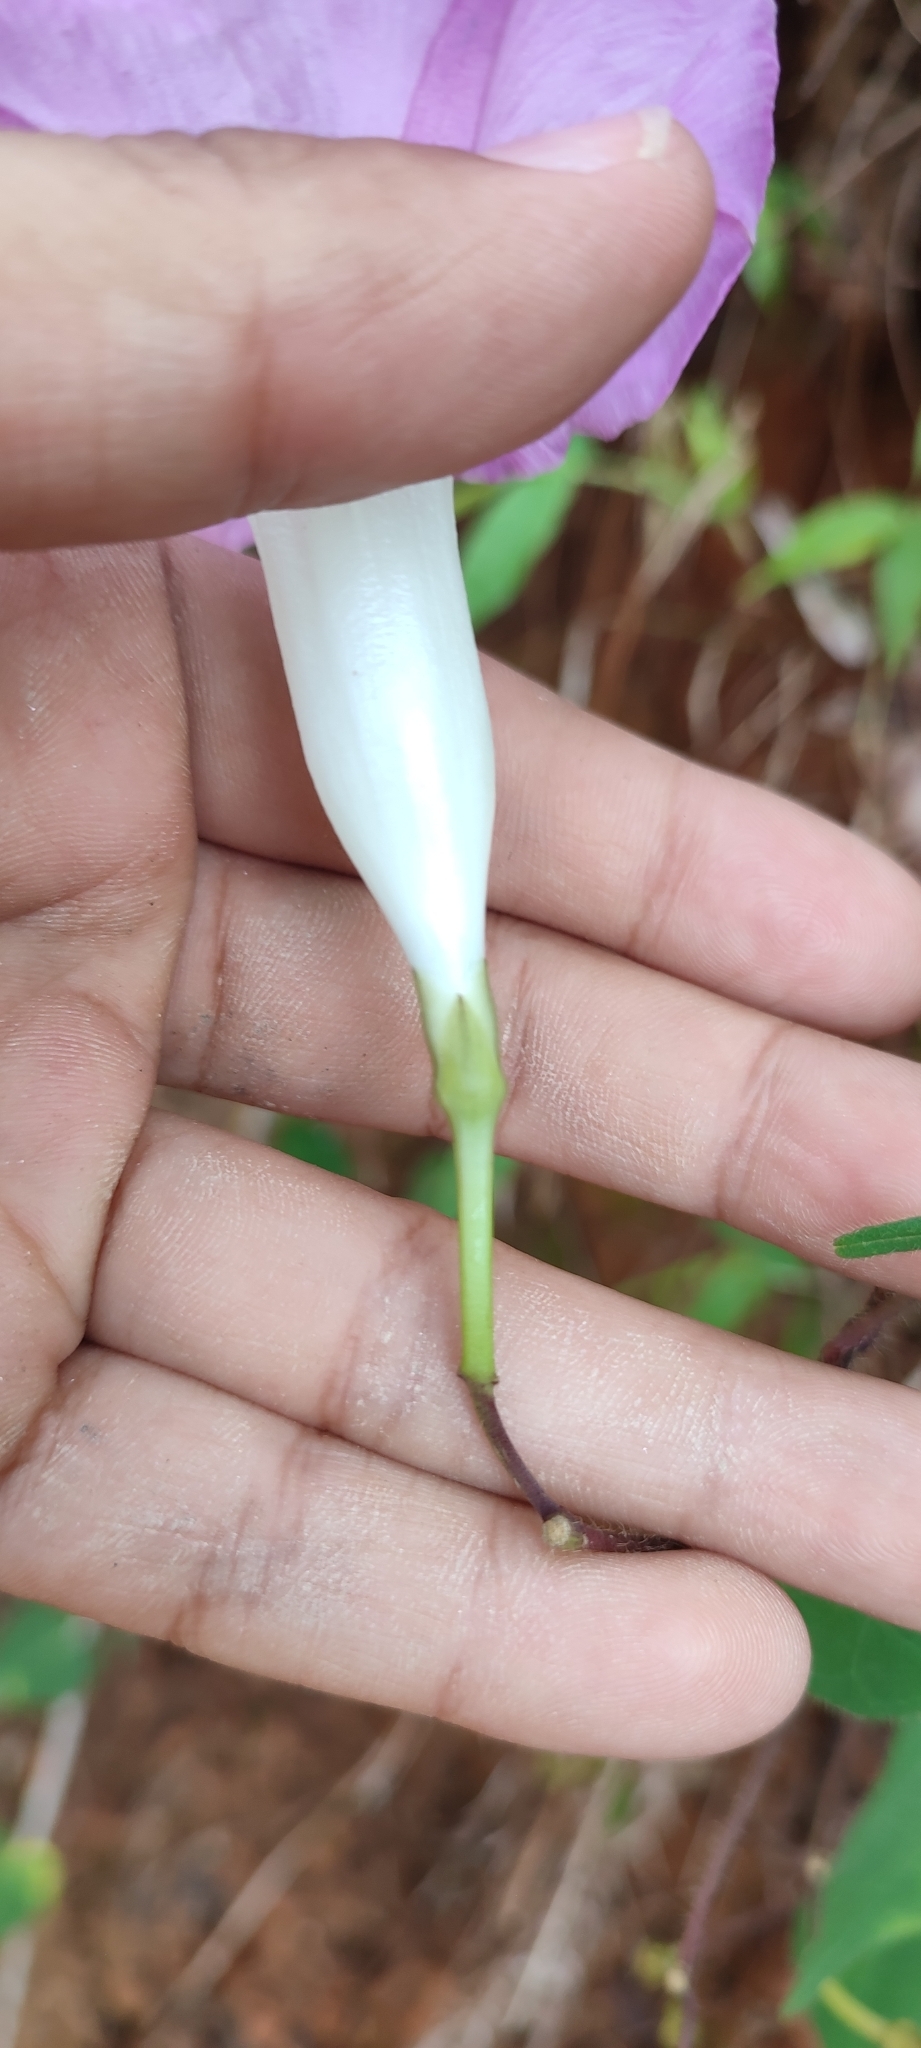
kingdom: Plantae
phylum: Tracheophyta
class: Magnoliopsida
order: Solanales
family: Convolvulaceae
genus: Ipomoea
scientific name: Ipomoea orizabensis
